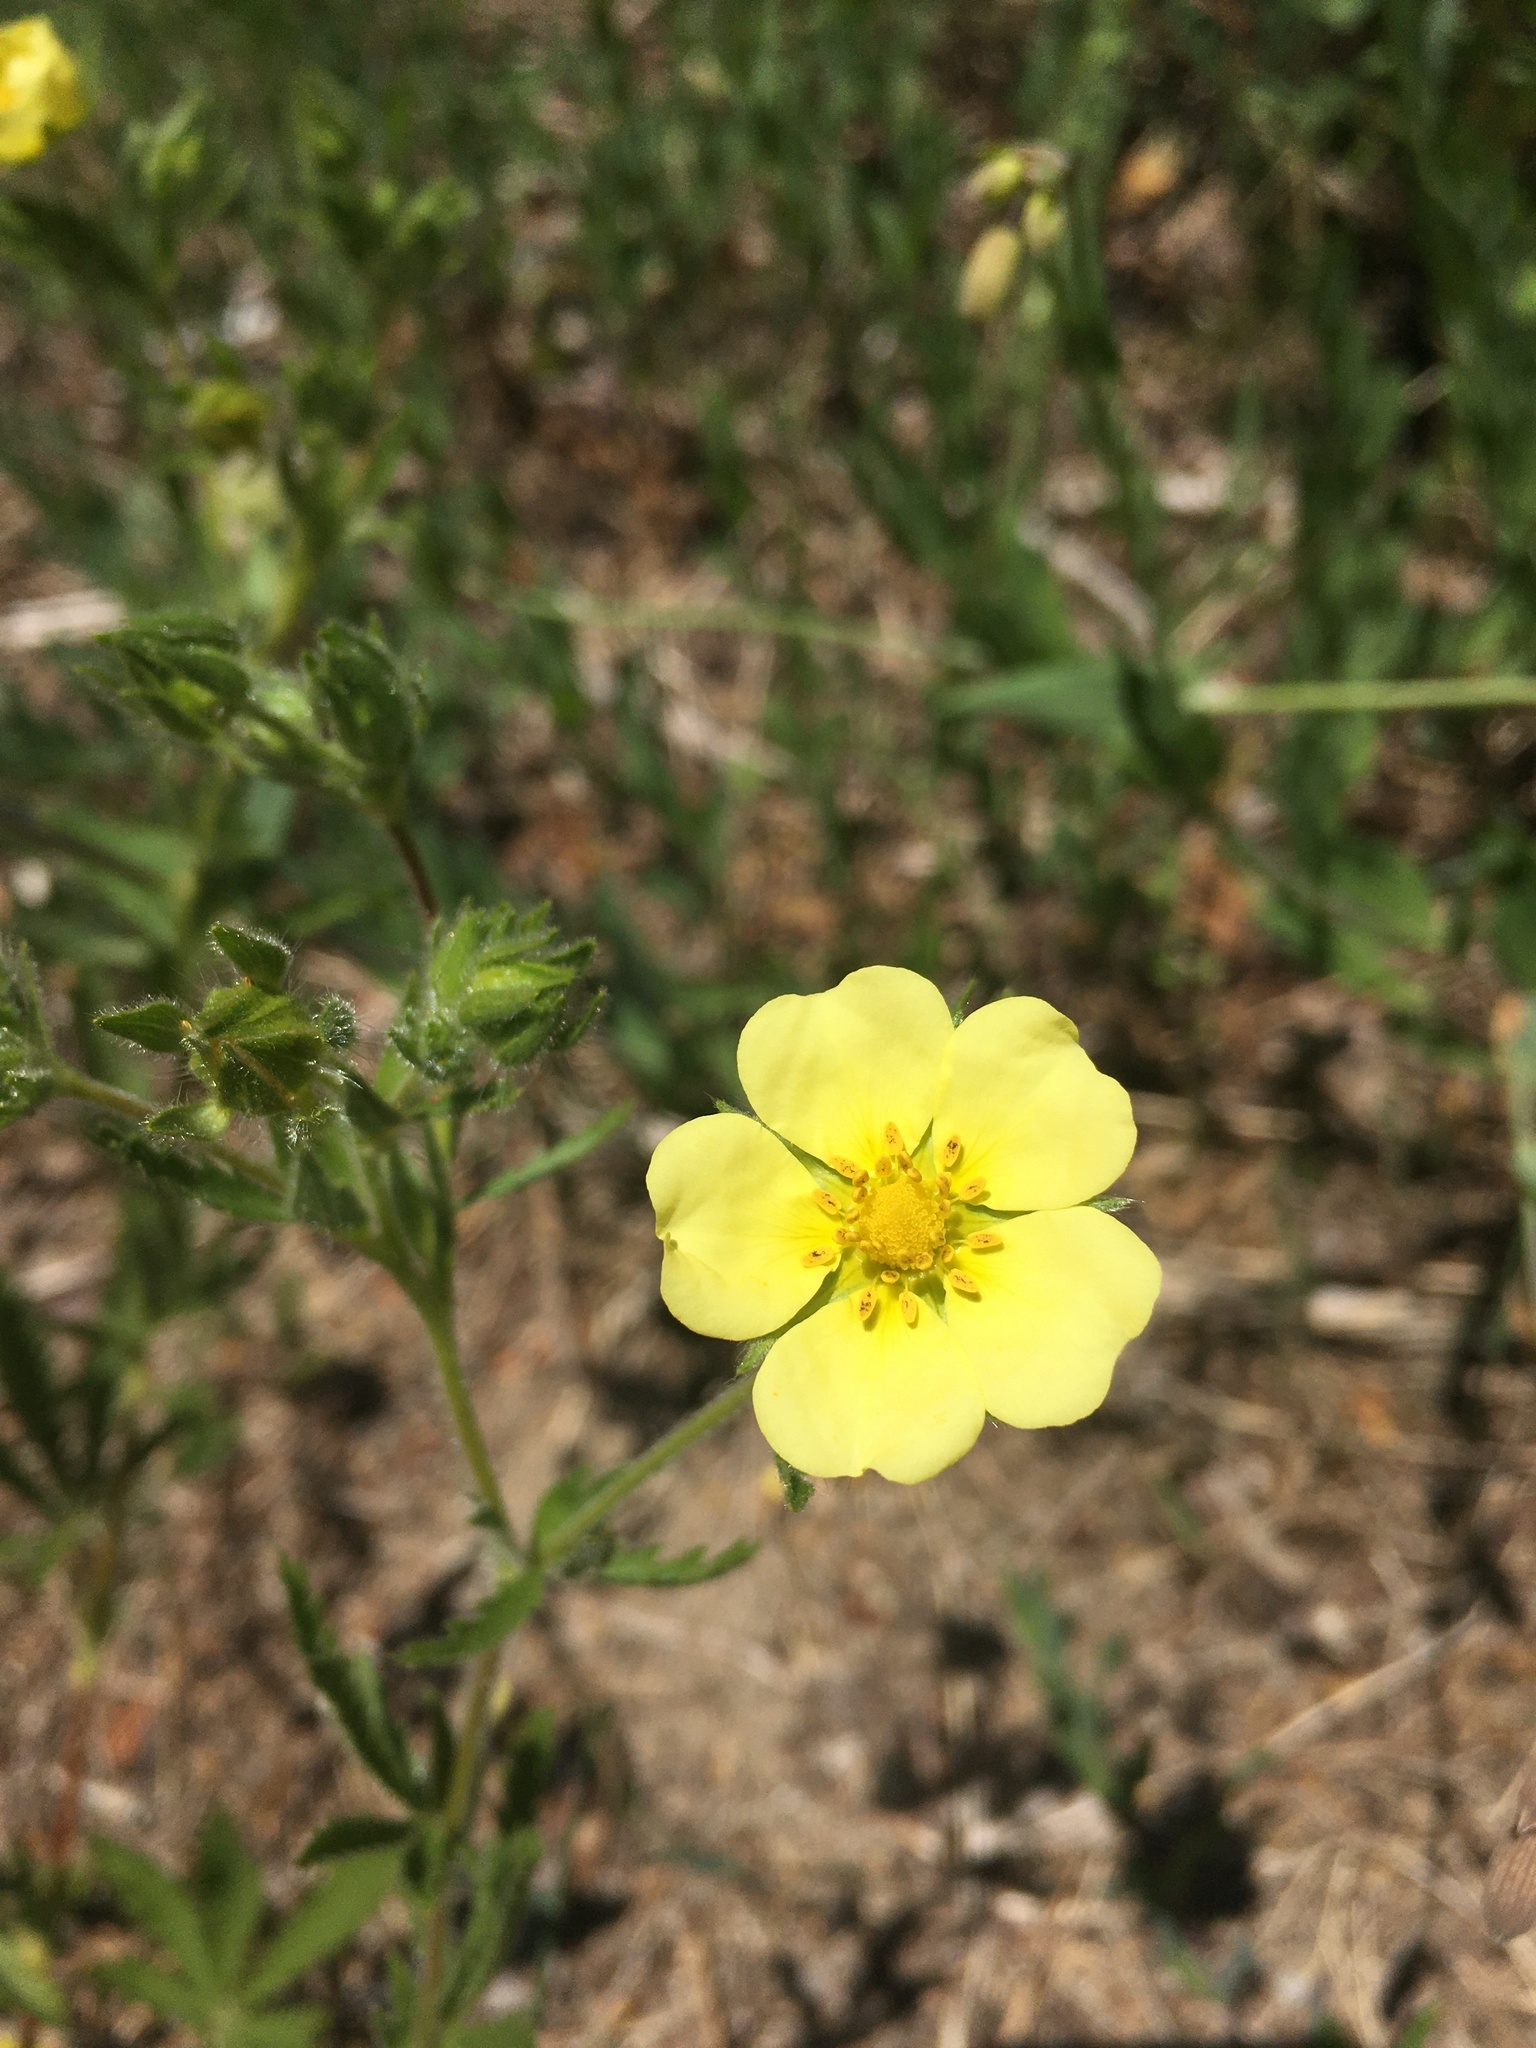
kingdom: Plantae
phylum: Tracheophyta
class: Magnoliopsida
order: Rosales
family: Rosaceae
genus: Potentilla
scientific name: Potentilla recta
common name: Sulphur cinquefoil
